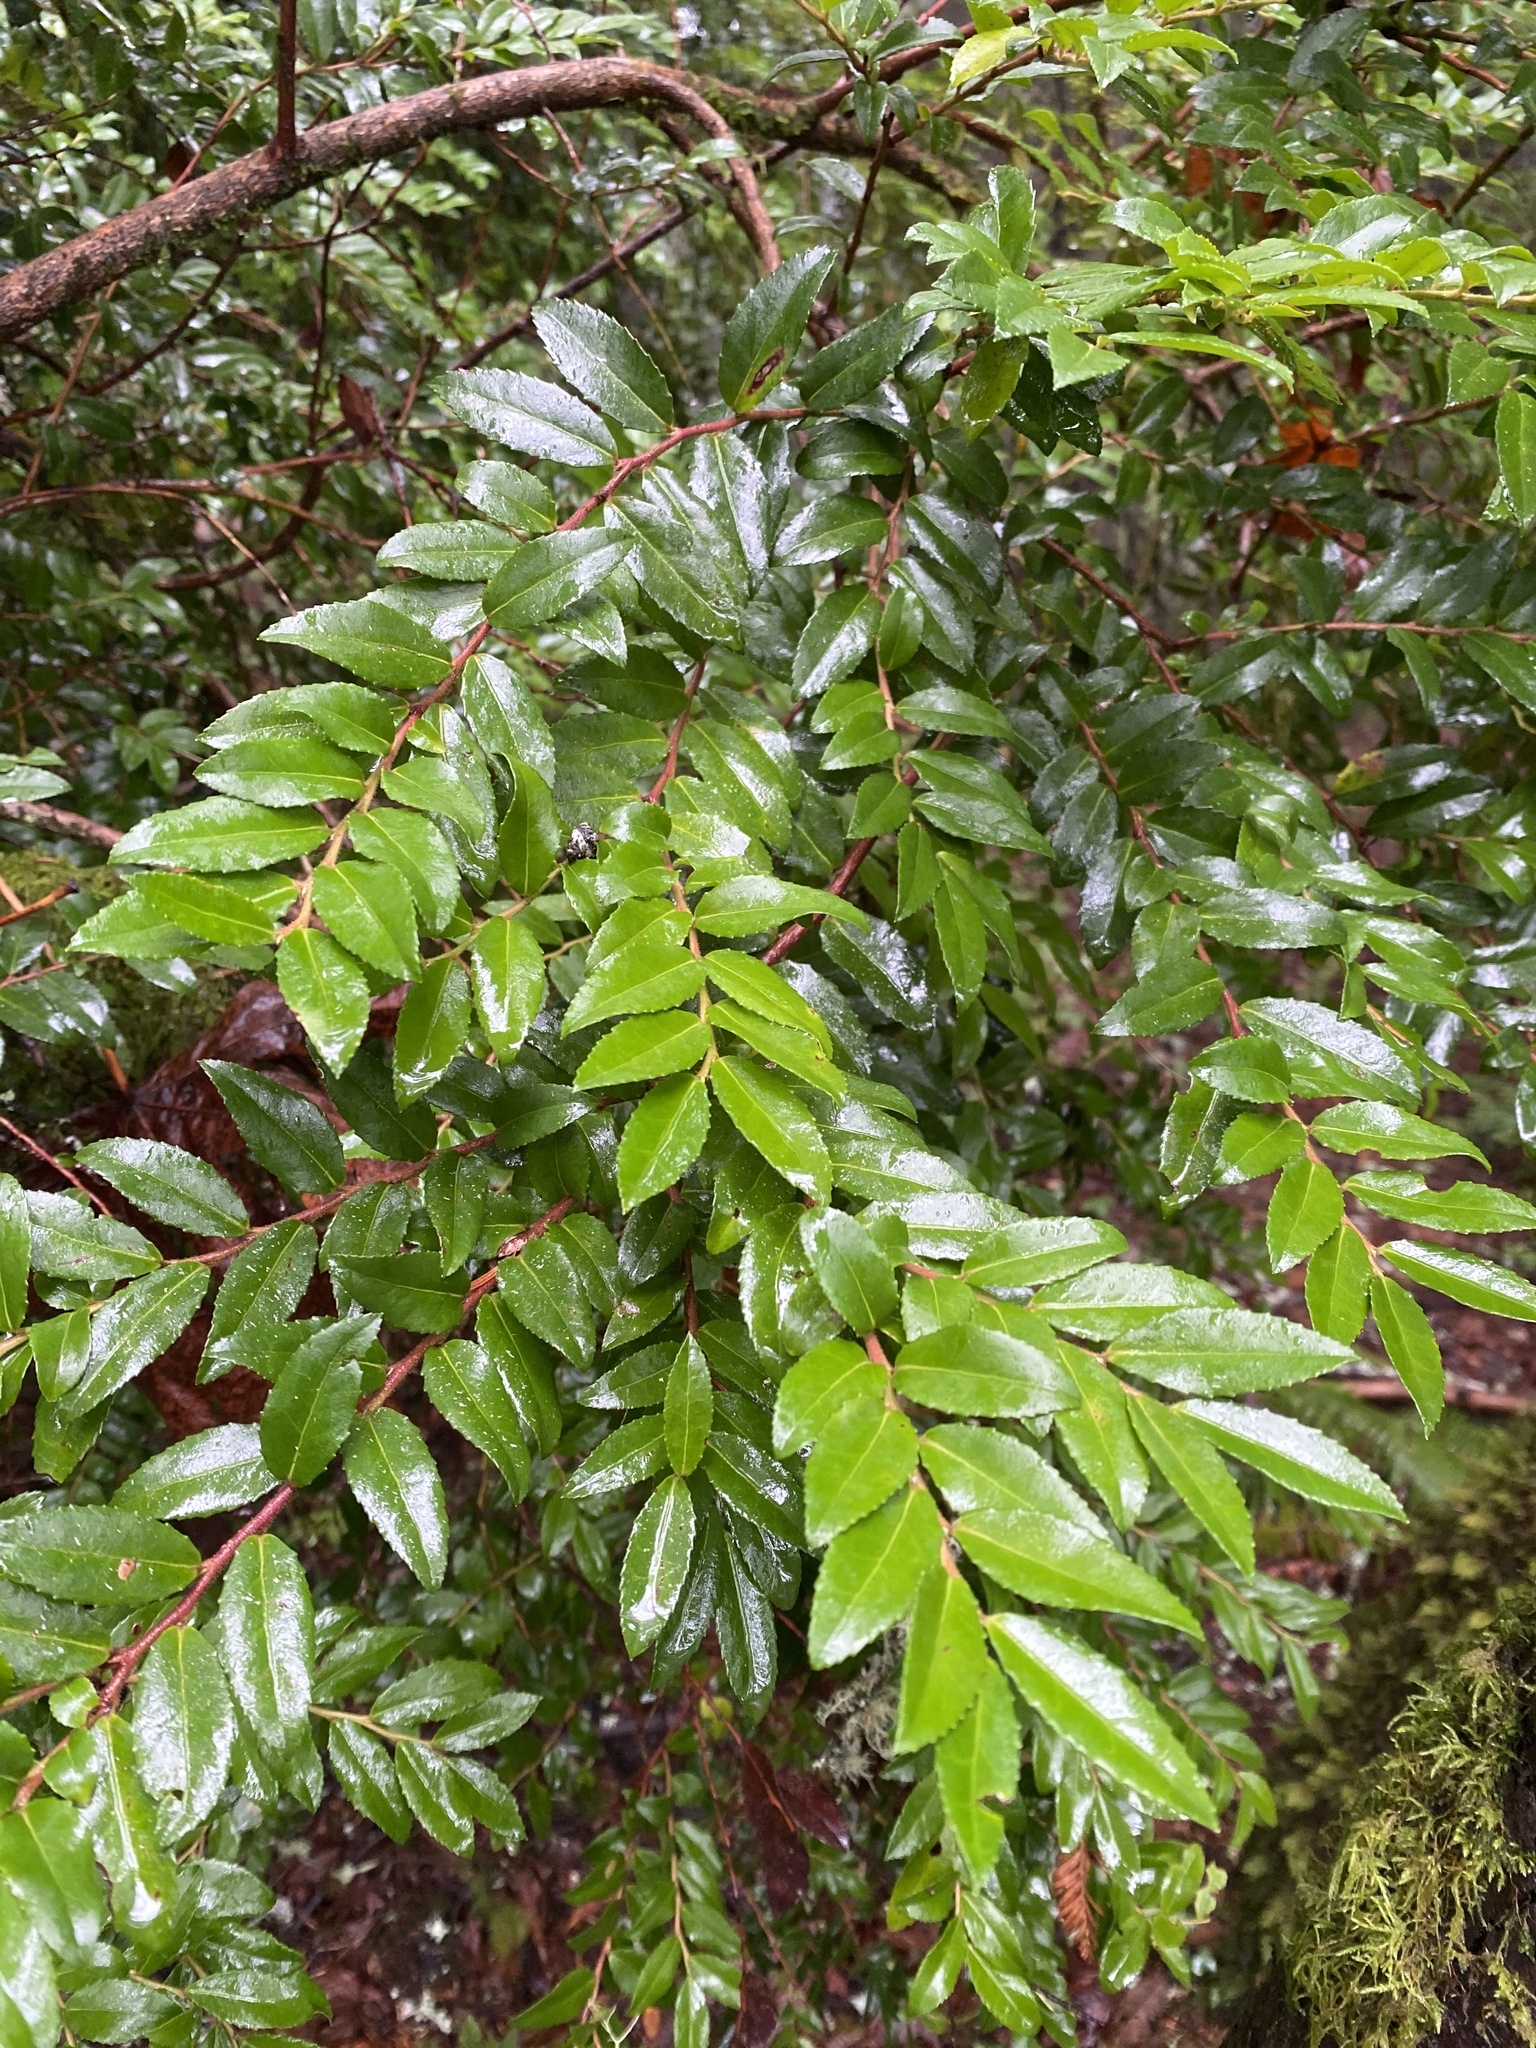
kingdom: Plantae
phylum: Tracheophyta
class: Magnoliopsida
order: Ericales
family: Ericaceae
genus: Vaccinium
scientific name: Vaccinium ovatum
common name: California-huckleberry
